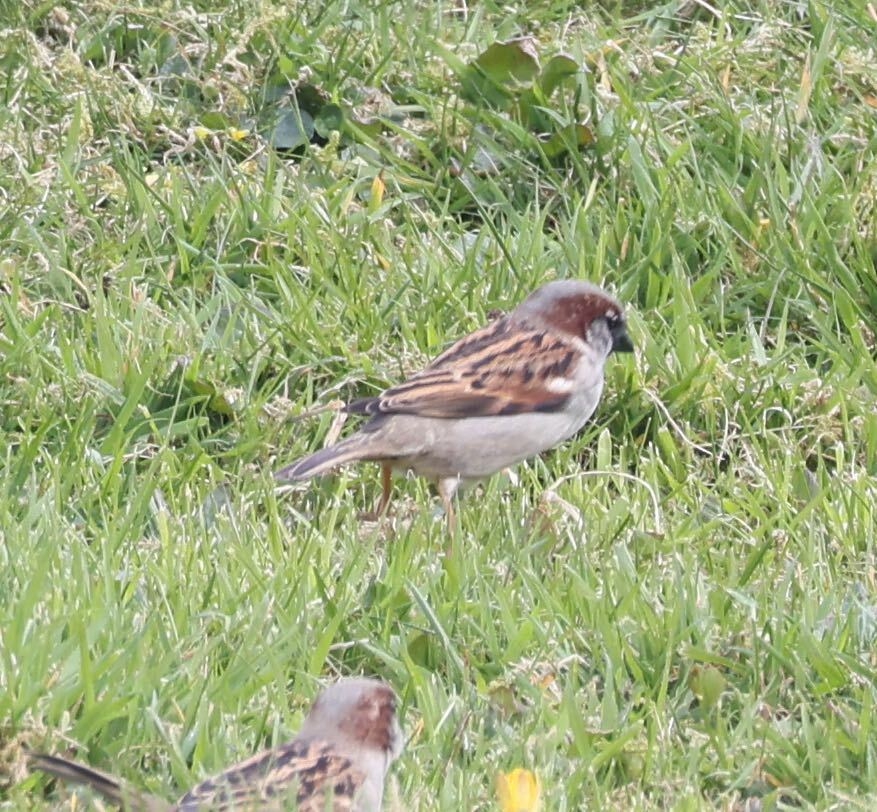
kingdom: Animalia
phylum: Chordata
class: Aves
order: Passeriformes
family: Passeridae
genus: Passer
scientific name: Passer domesticus
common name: House sparrow
